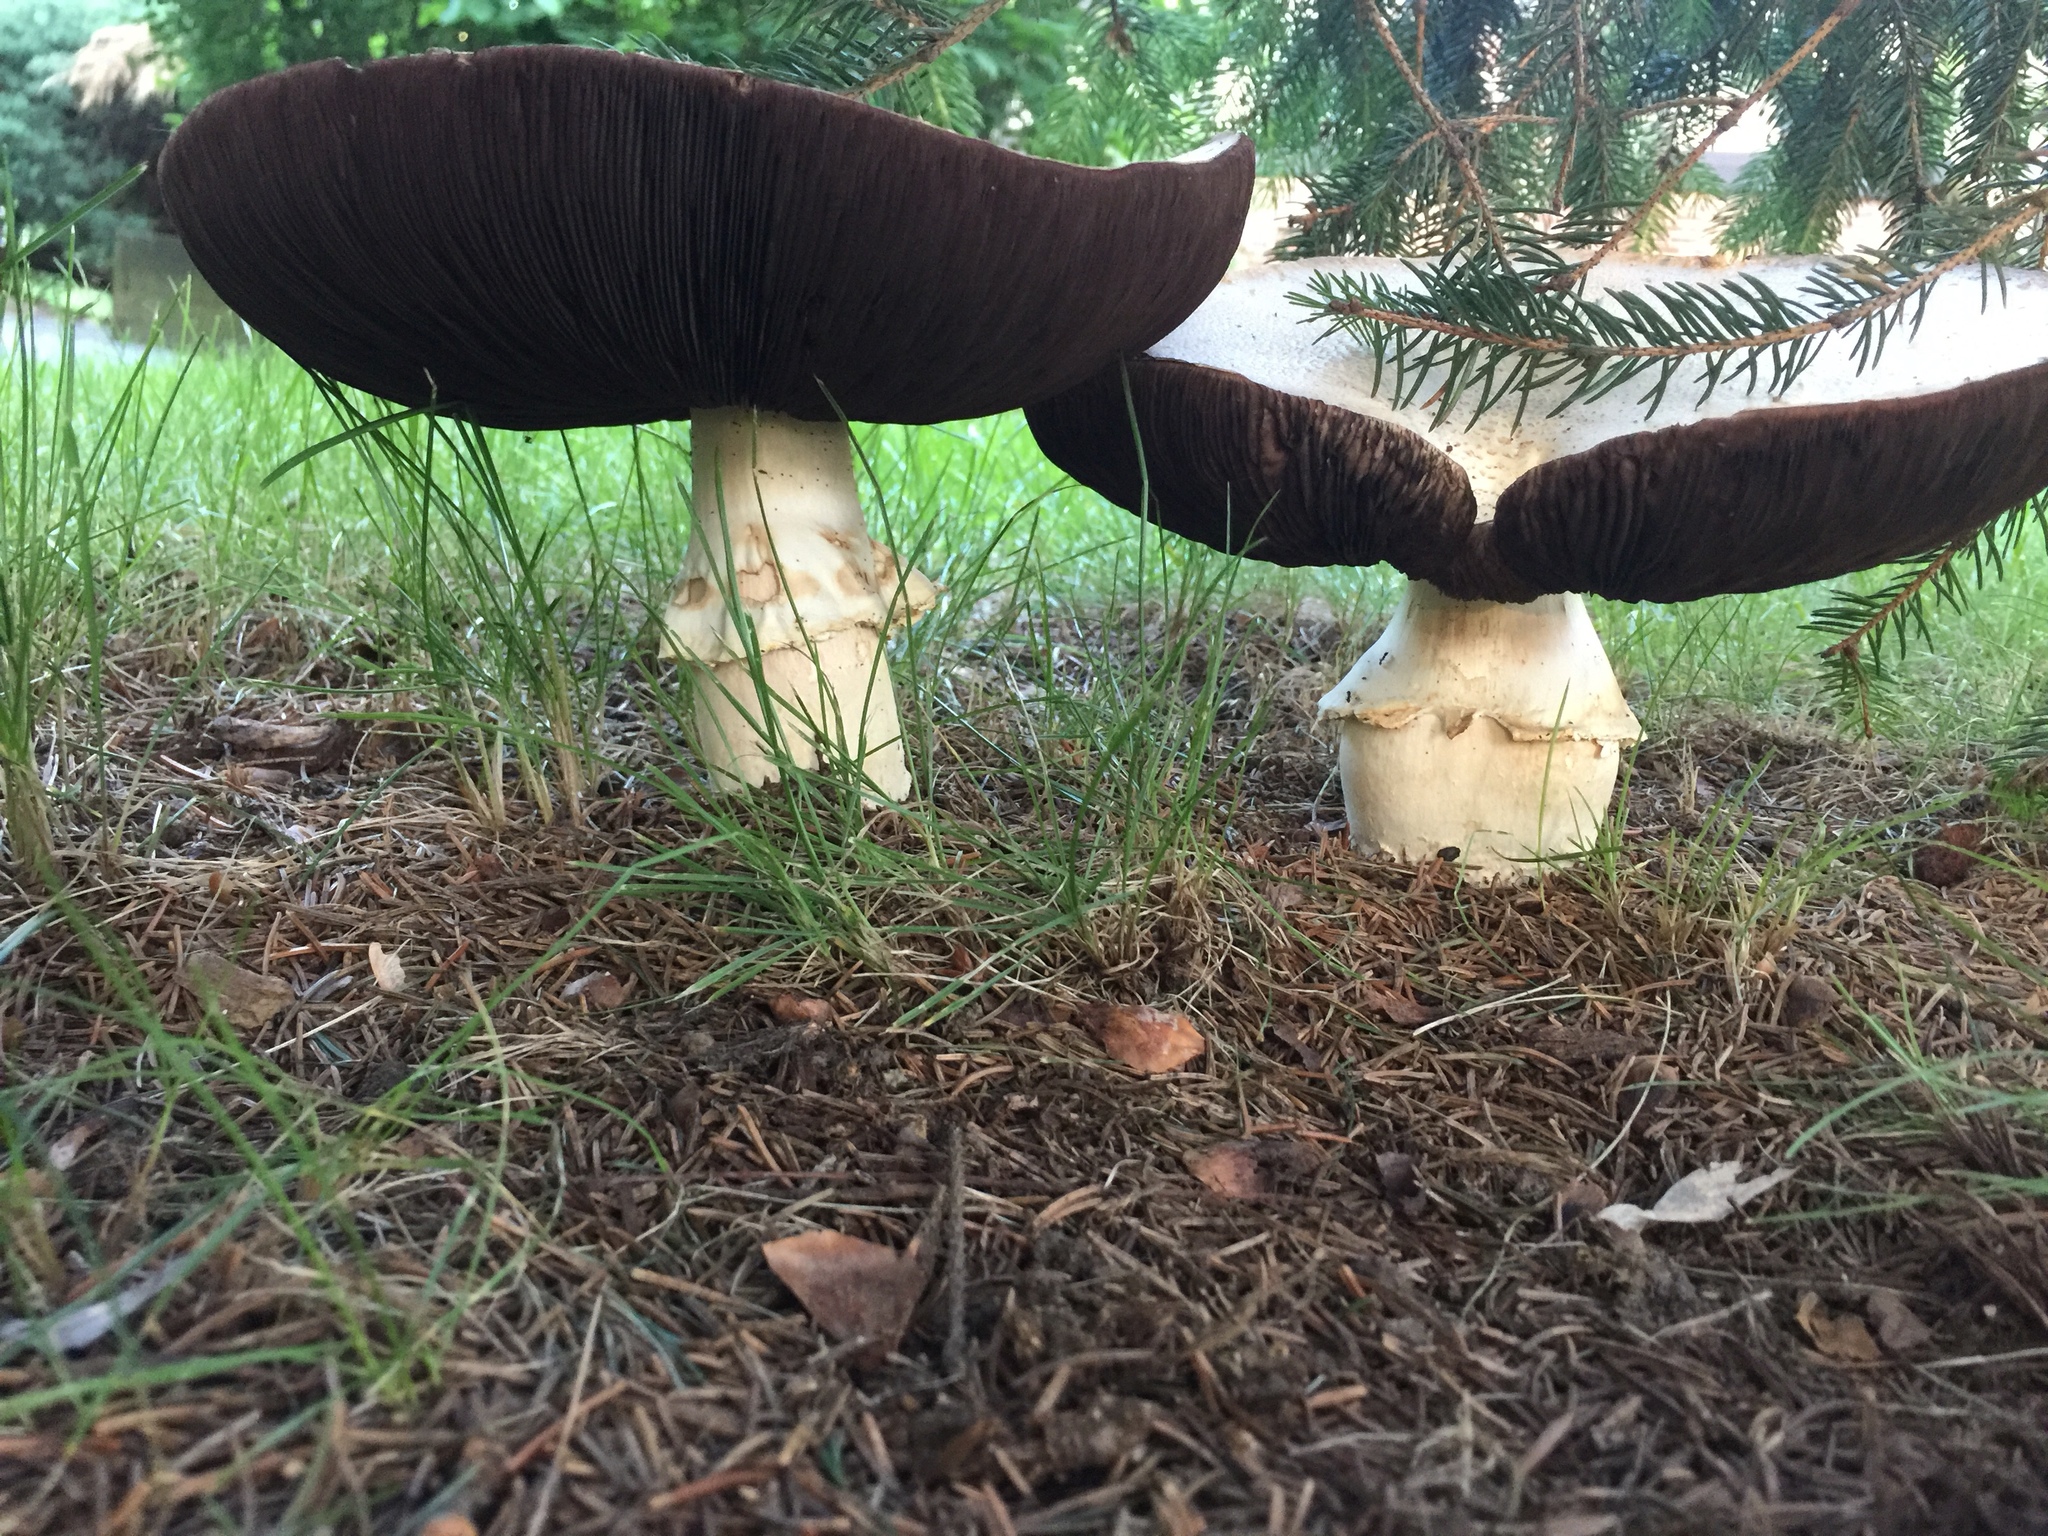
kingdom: Fungi
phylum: Basidiomycota
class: Agaricomycetes
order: Agaricales
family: Agaricaceae
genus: Agaricus
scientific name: Agaricus urinascens
